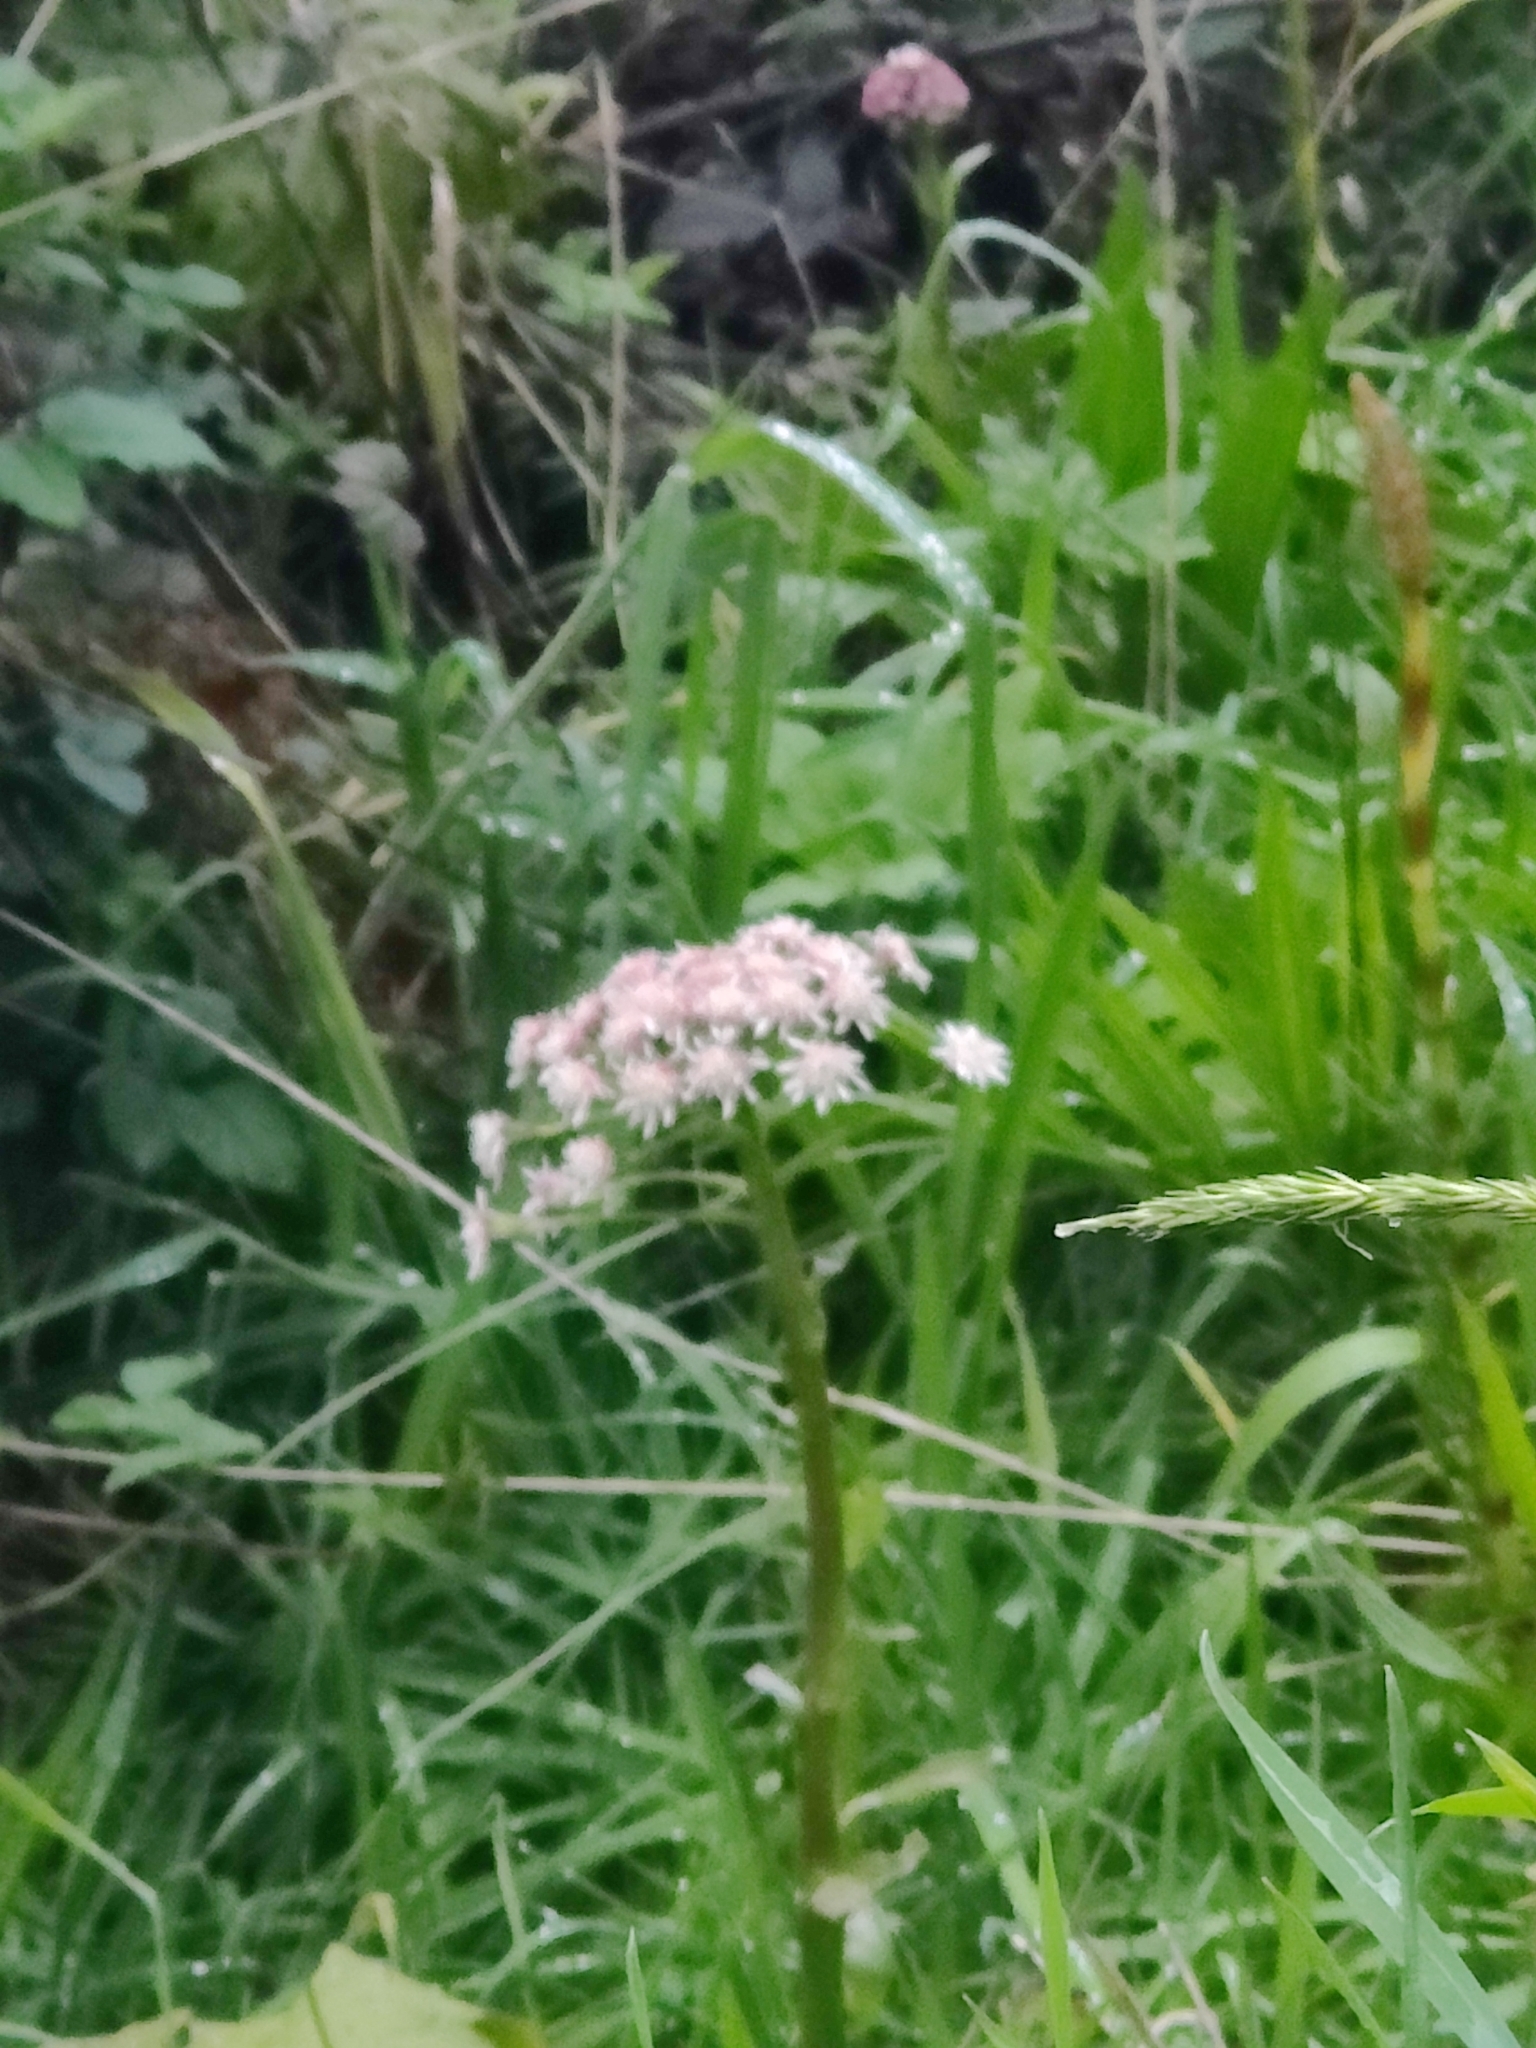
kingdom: Plantae
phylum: Tracheophyta
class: Magnoliopsida
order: Asterales
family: Asteraceae
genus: Petasites
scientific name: Petasites frigidus
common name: Arctic butterbur
